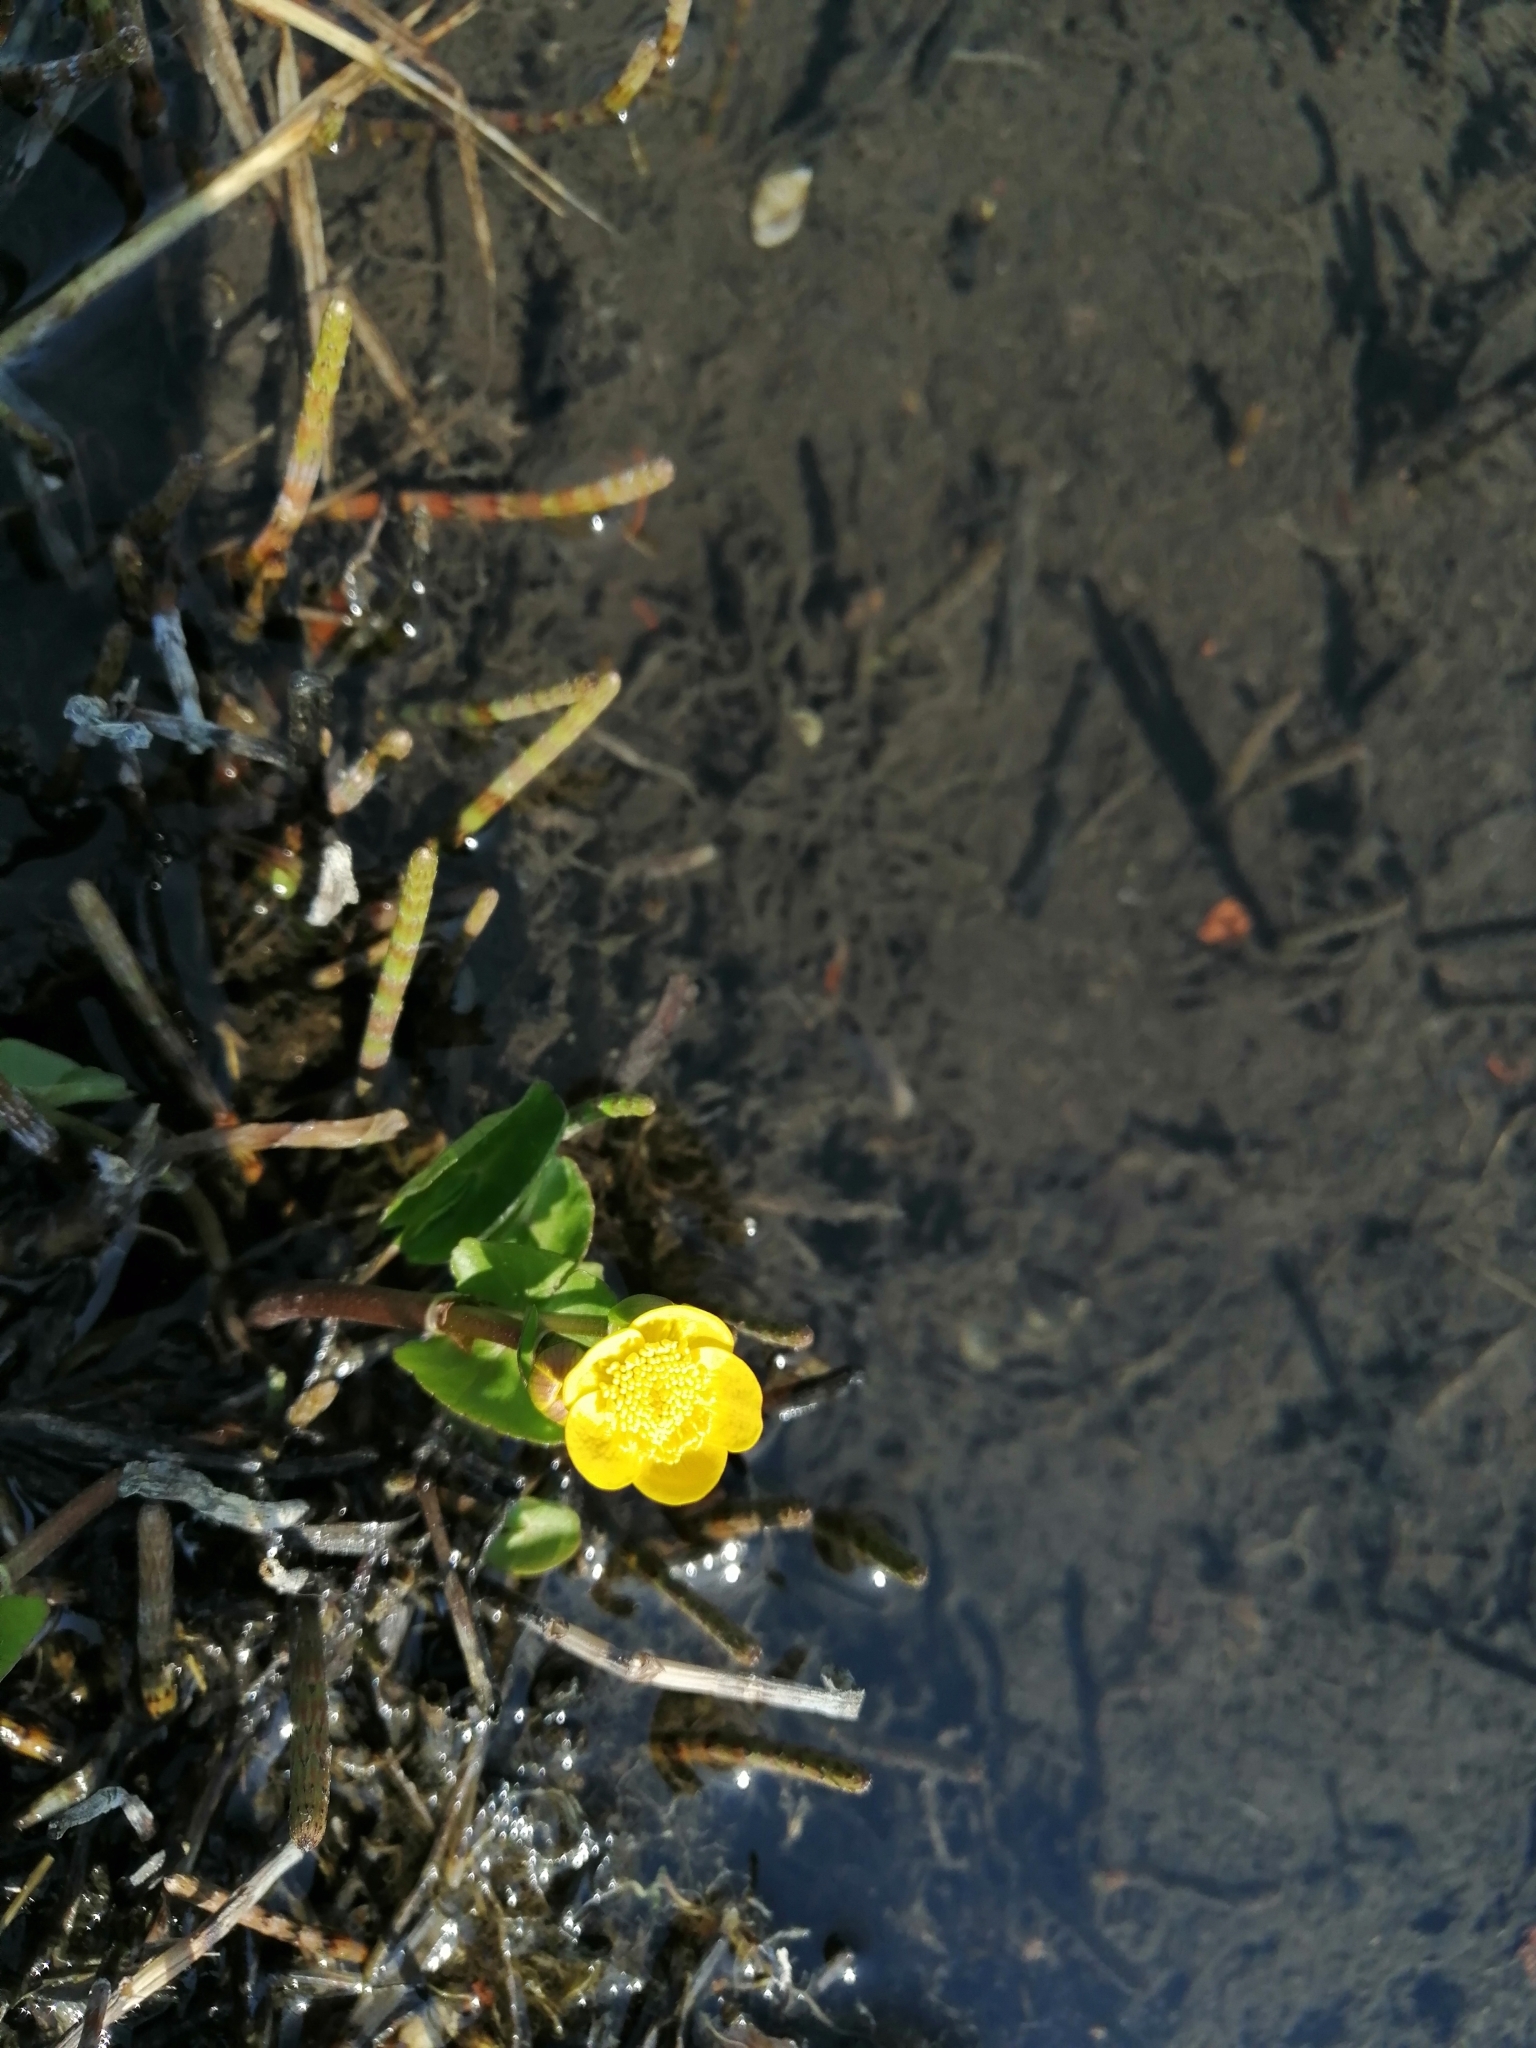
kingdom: Plantae
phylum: Tracheophyta
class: Magnoliopsida
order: Ranunculales
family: Ranunculaceae
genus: Caltha
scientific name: Caltha palustris
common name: Marsh marigold
